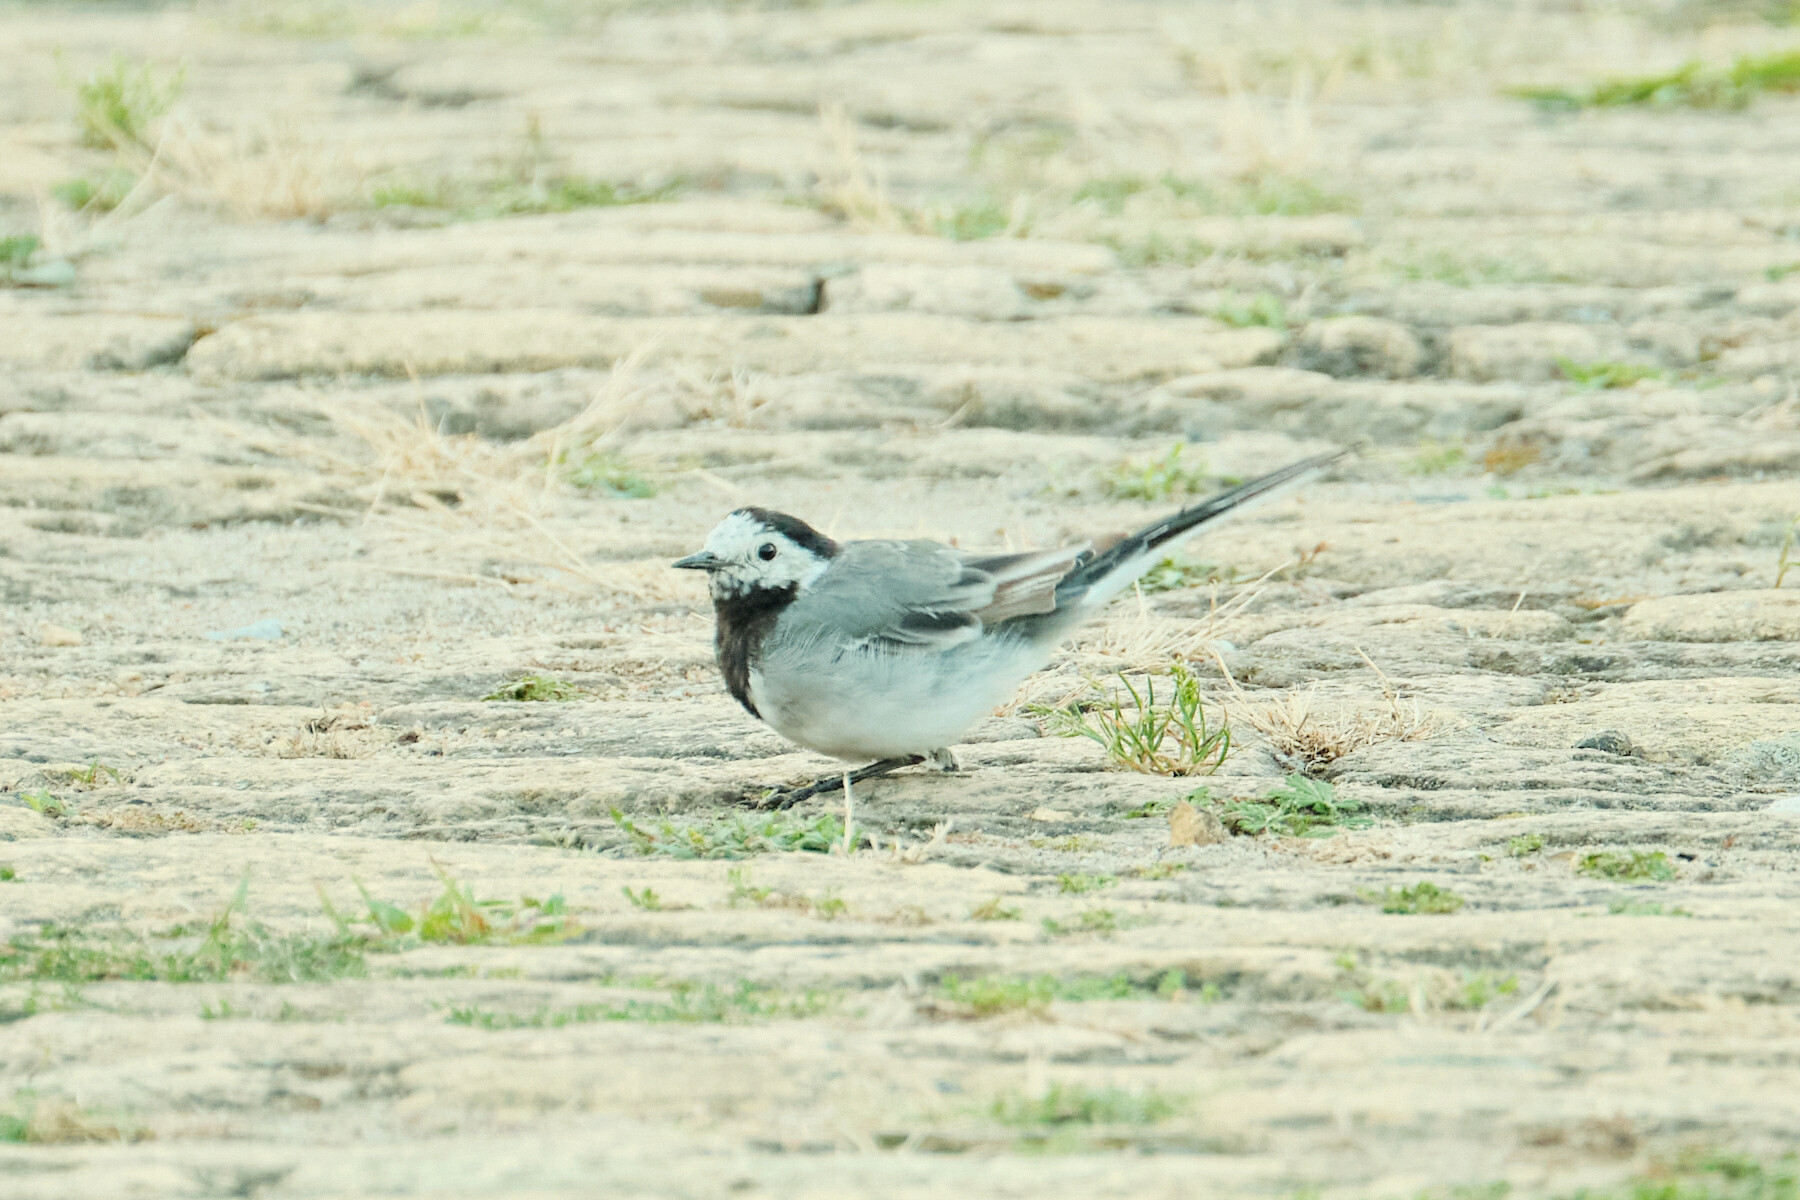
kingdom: Animalia
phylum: Chordata
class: Aves
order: Passeriformes
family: Motacillidae
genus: Motacilla
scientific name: Motacilla alba
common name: White wagtail
